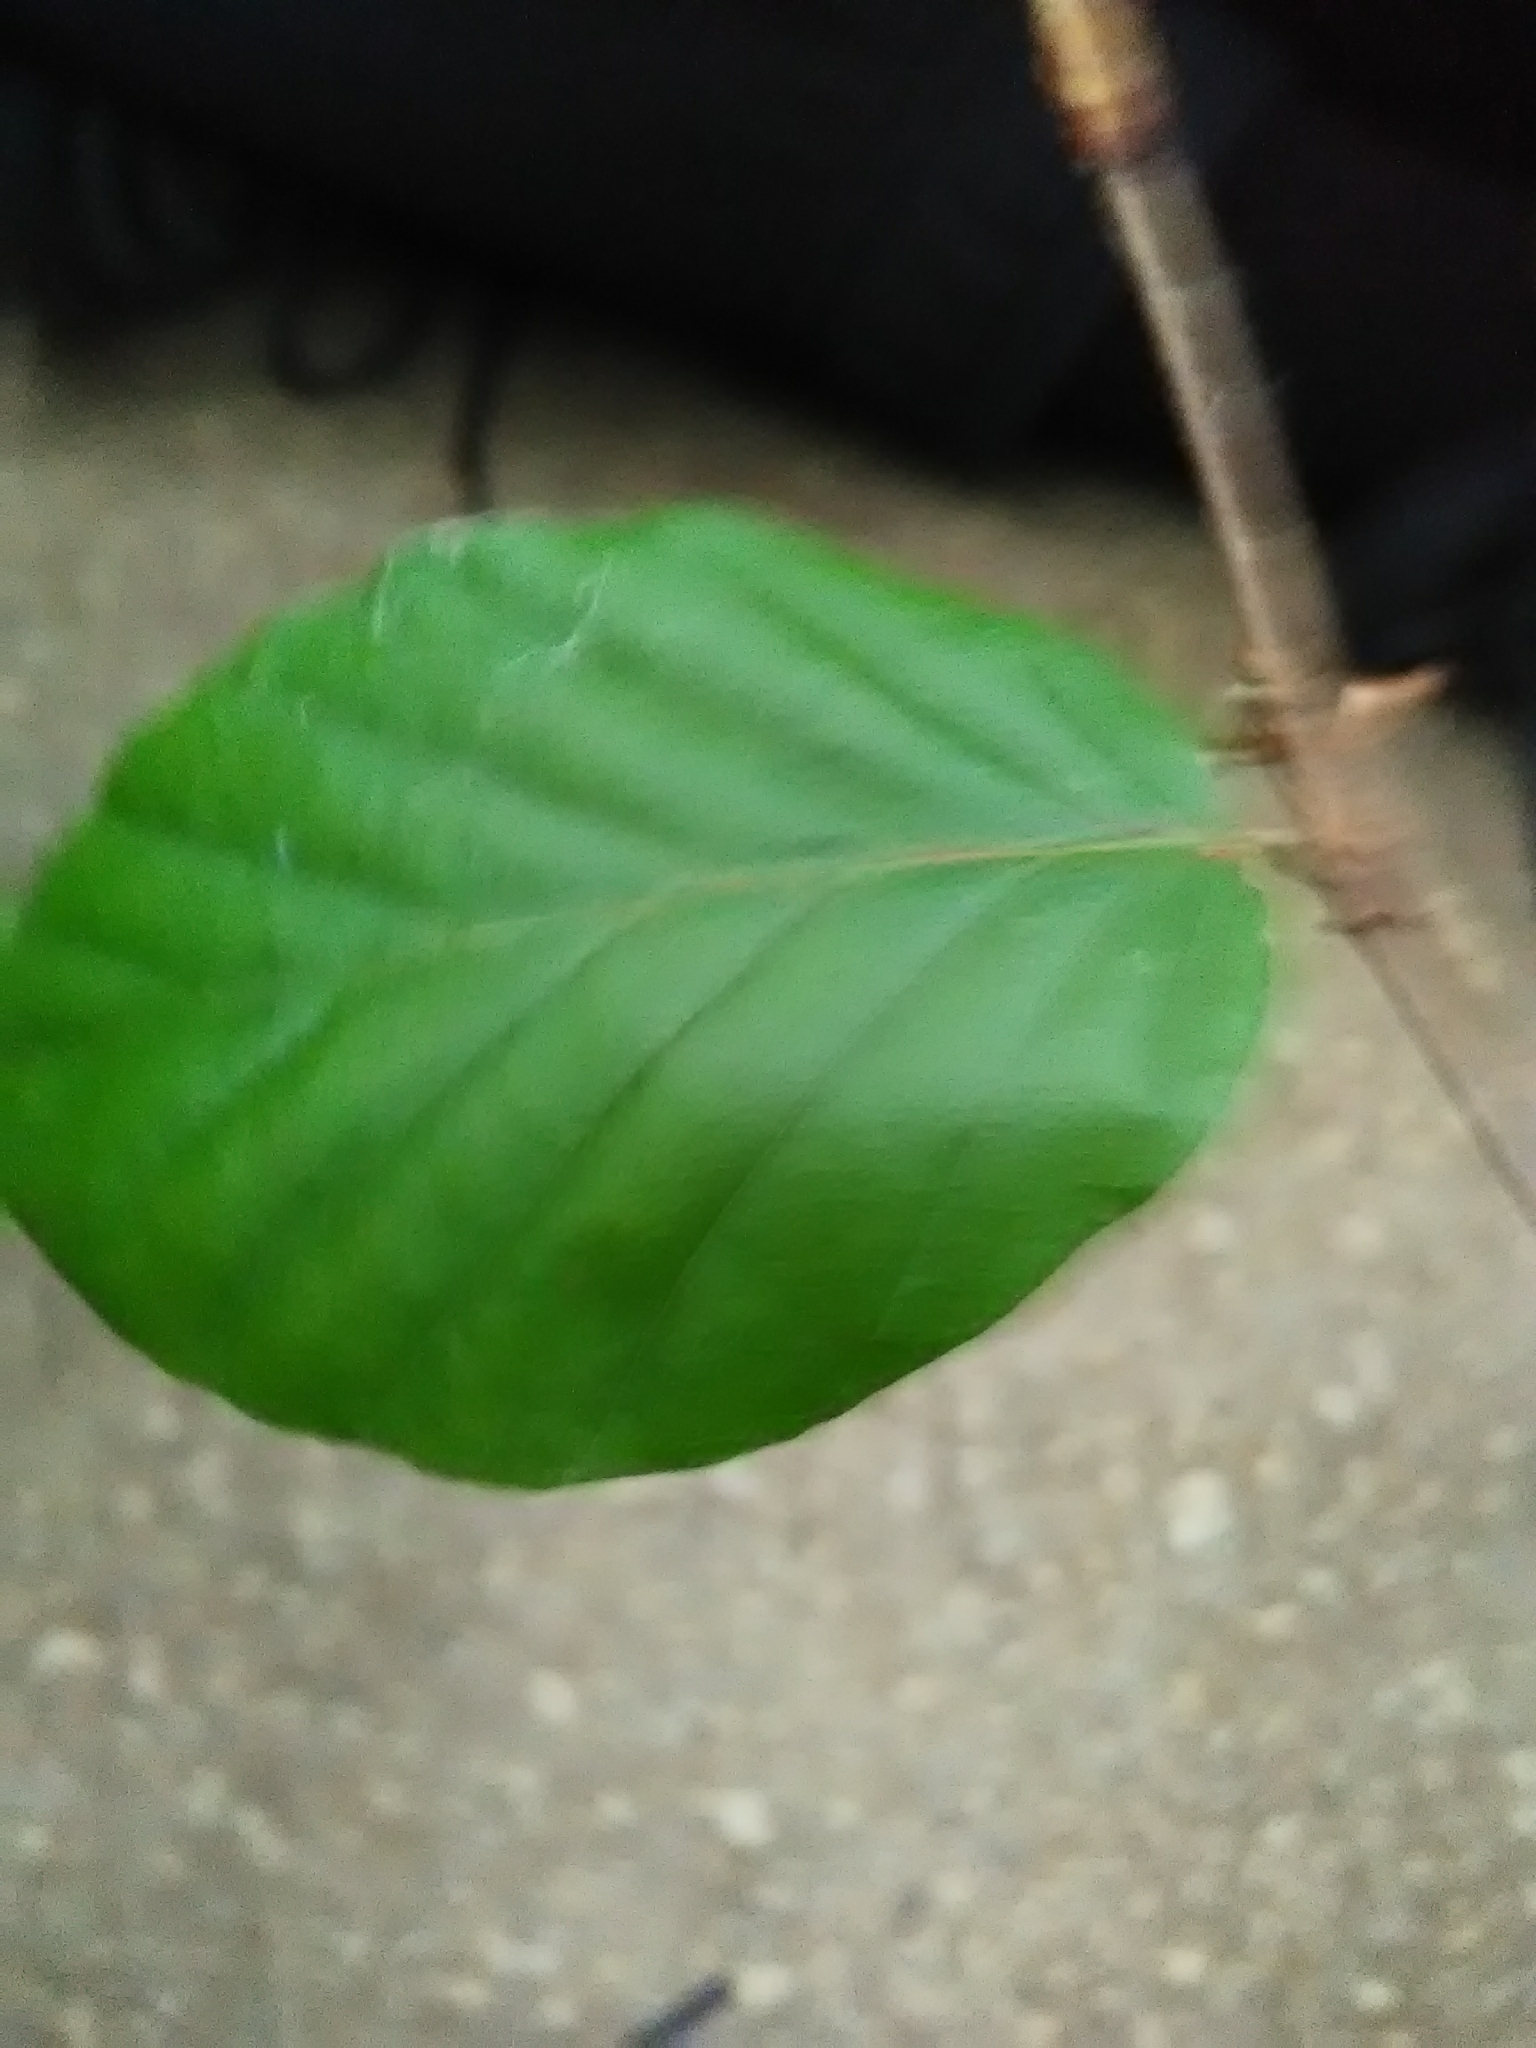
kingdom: Plantae
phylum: Tracheophyta
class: Magnoliopsida
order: Fagales
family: Fagaceae
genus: Fagus
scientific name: Fagus sylvatica
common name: Beech
